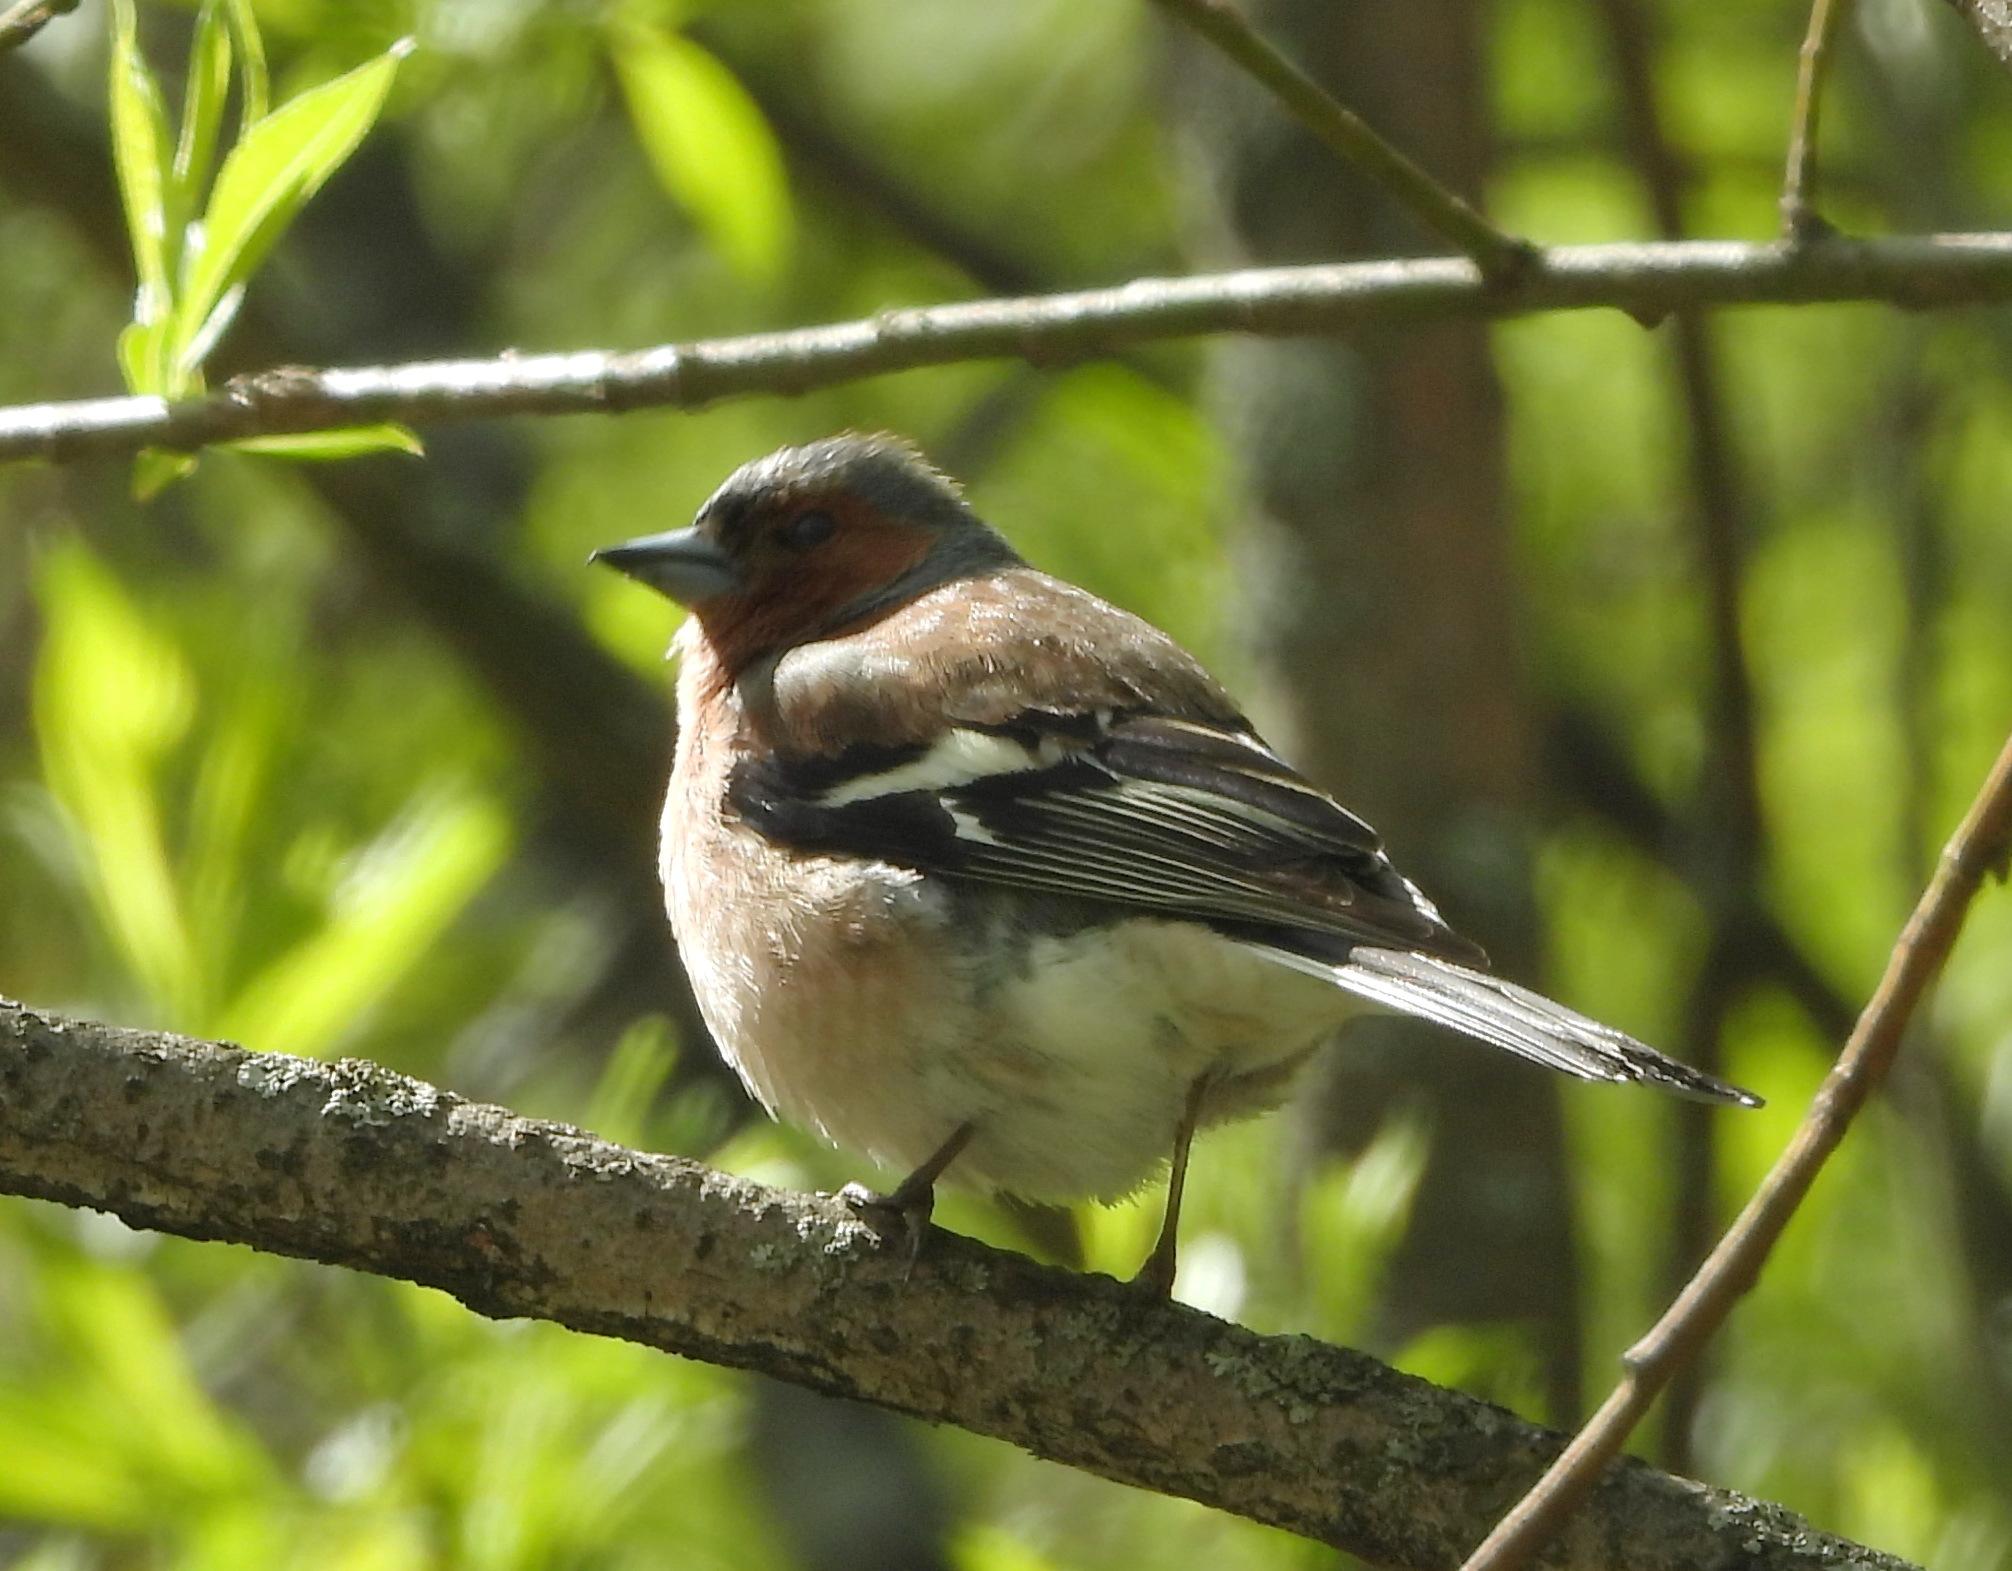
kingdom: Animalia
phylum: Chordata
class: Aves
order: Passeriformes
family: Fringillidae
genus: Fringilla
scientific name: Fringilla coelebs
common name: Common chaffinch
